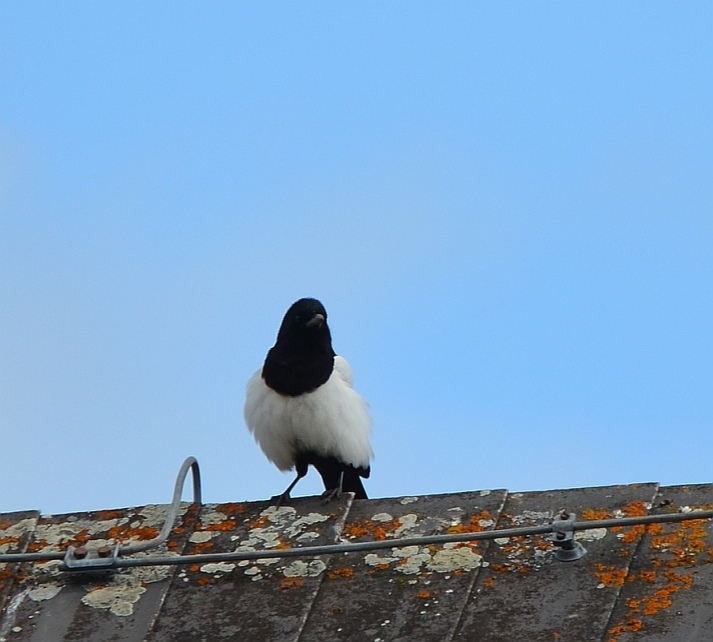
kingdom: Animalia
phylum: Chordata
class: Aves
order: Passeriformes
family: Corvidae
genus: Pica
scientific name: Pica pica
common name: Eurasian magpie
